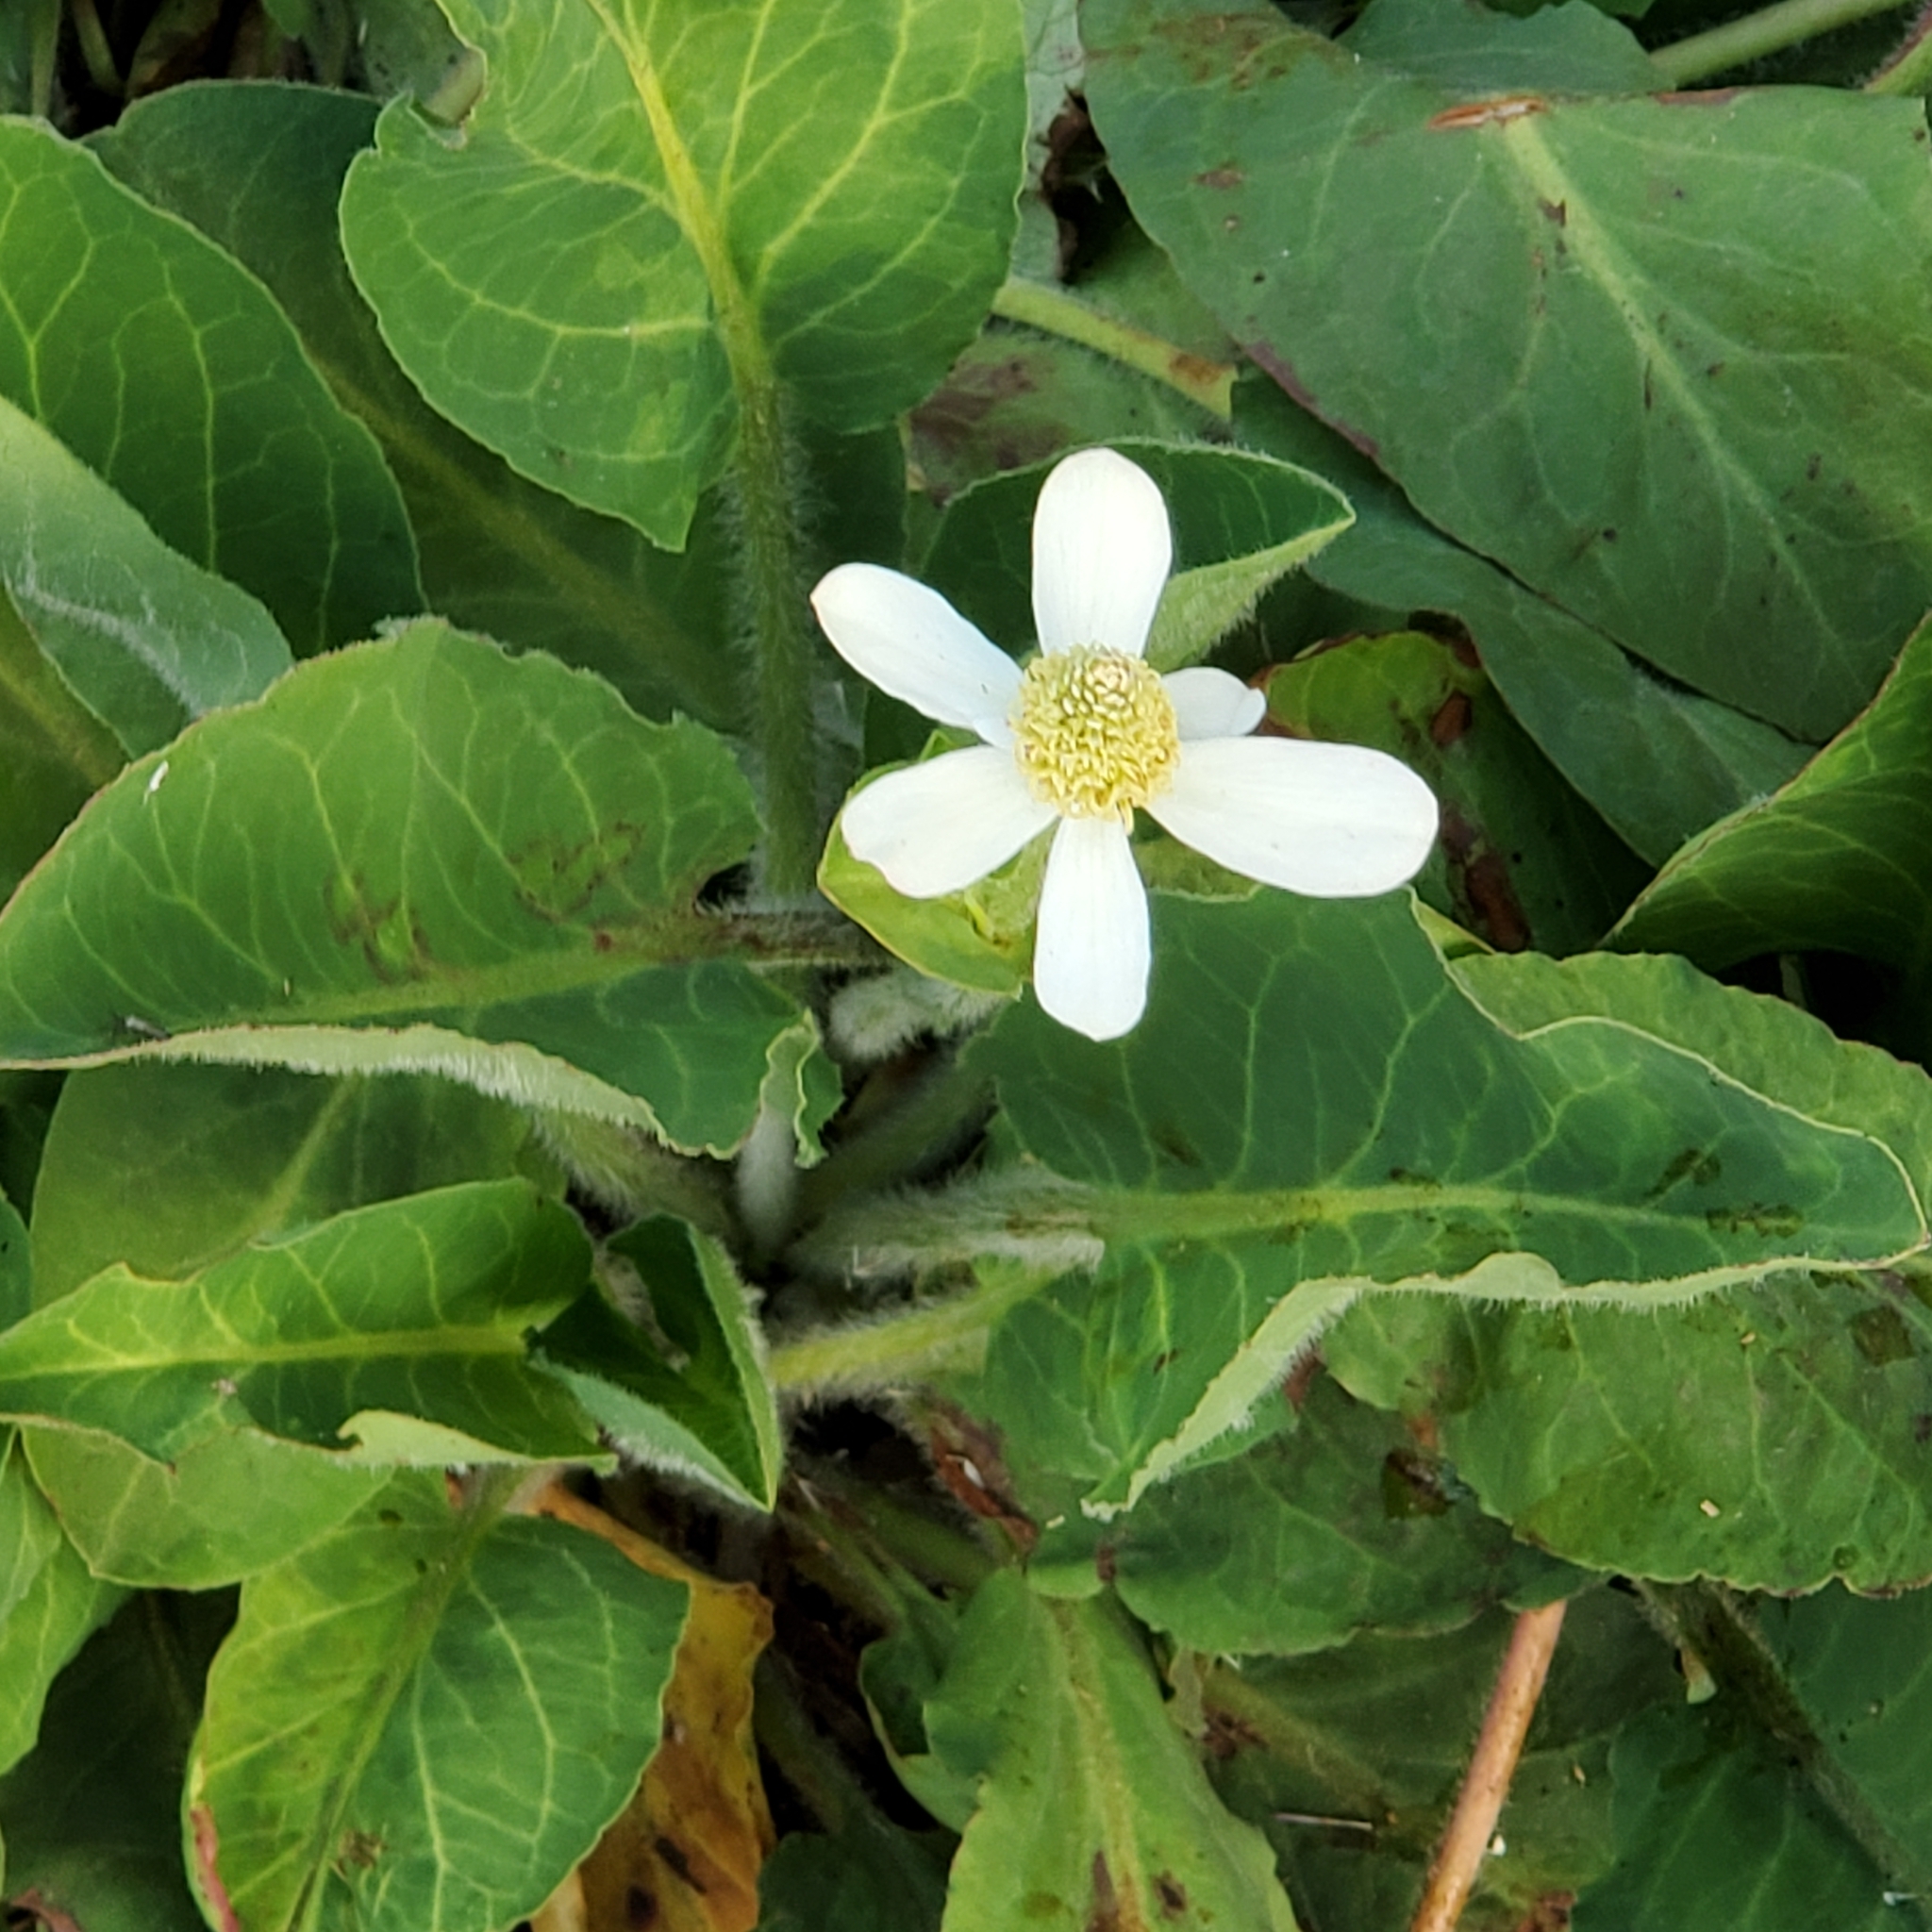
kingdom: Plantae
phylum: Tracheophyta
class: Magnoliopsida
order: Piperales
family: Saururaceae
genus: Anemopsis
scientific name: Anemopsis californica
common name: Apache-beads
